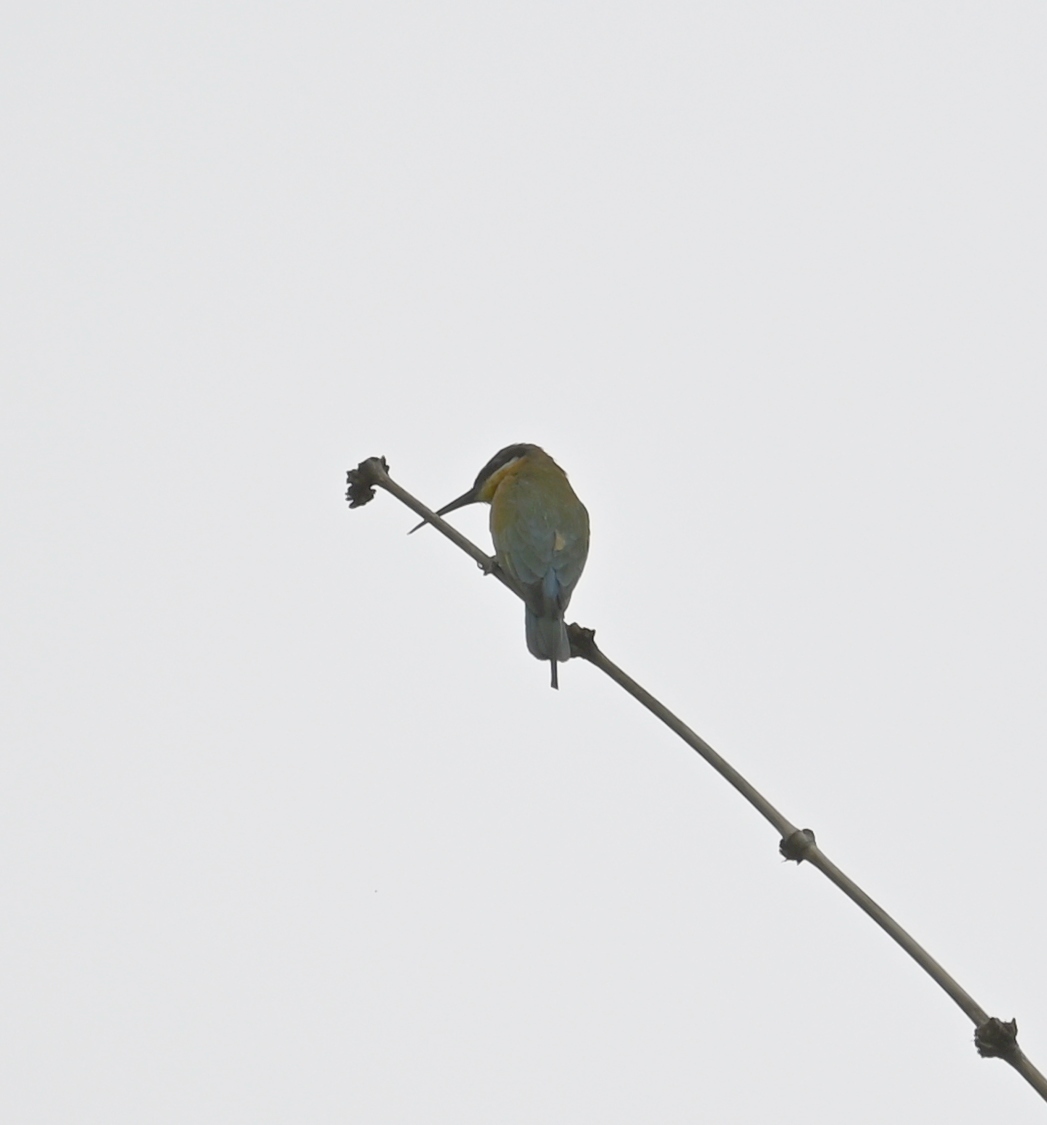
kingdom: Animalia
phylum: Chordata
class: Aves
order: Coraciiformes
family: Meropidae
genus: Merops
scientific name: Merops philippinus
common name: Blue-tailed bee-eater
